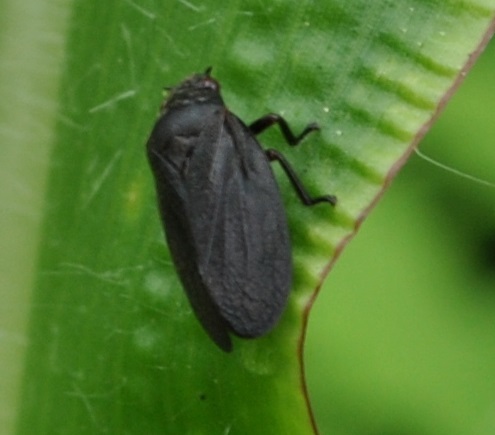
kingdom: Animalia
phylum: Arthropoda
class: Insecta
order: Hemiptera
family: Cercopidae
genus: Prosapia
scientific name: Prosapia bicincta
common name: Twolined spittlebug
